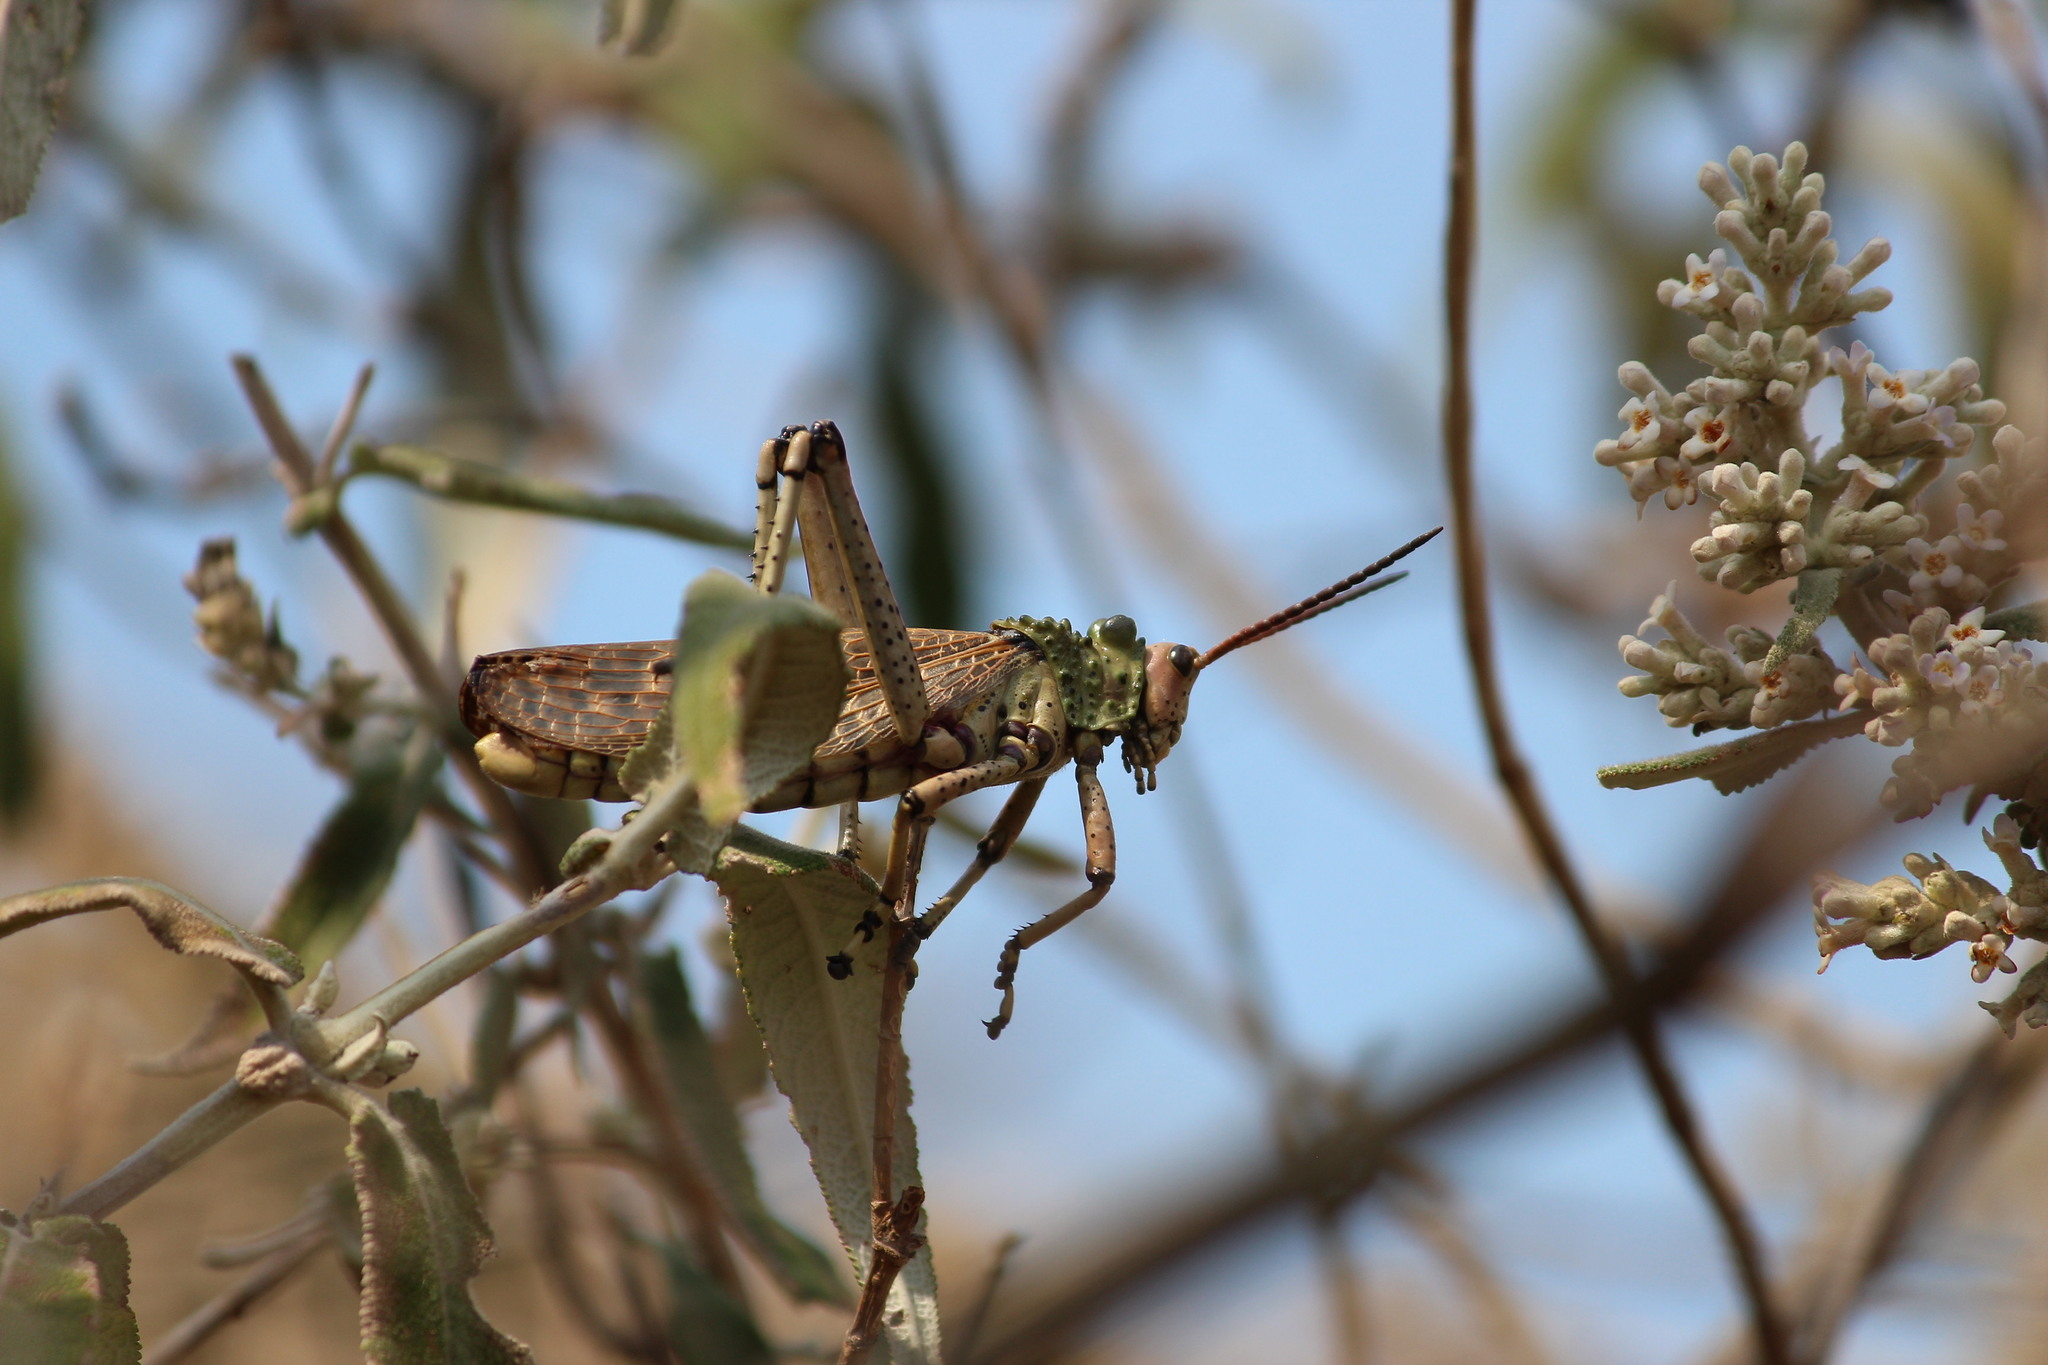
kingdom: Animalia
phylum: Arthropoda
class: Insecta
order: Orthoptera
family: Pyrgomorphidae
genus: Phymateus
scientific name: Phymateus leprosus
